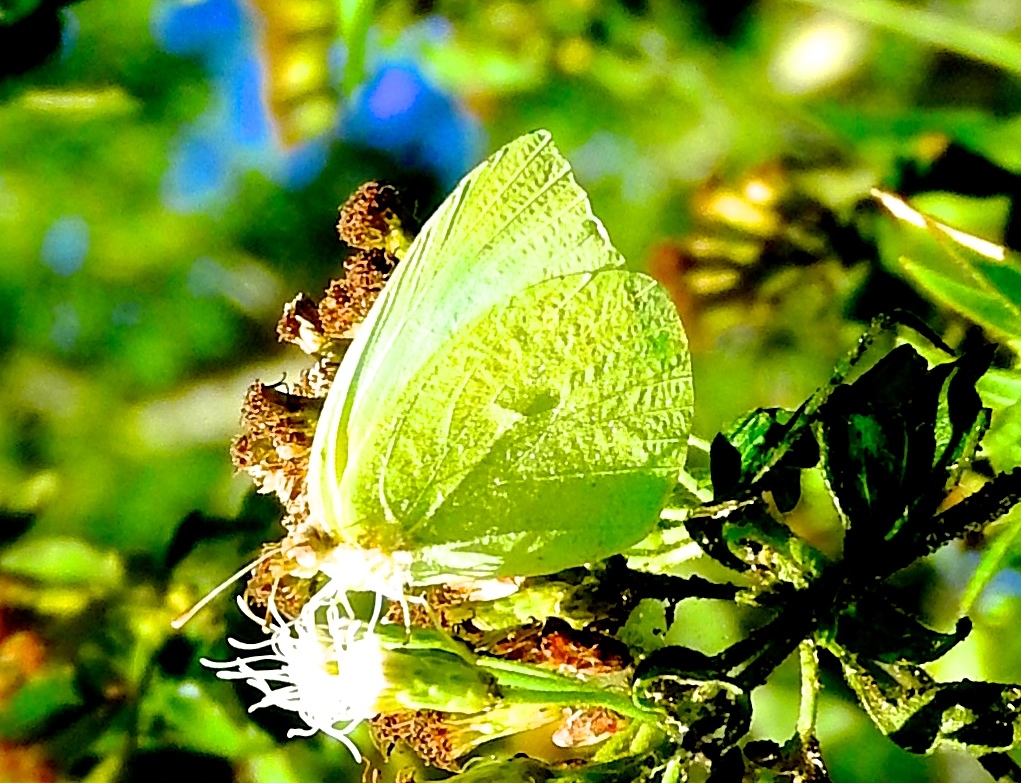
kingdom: Animalia
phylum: Arthropoda
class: Insecta
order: Lepidoptera
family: Pieridae
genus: Kricogonia
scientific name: Kricogonia lyside
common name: Guayacan sulphur,
